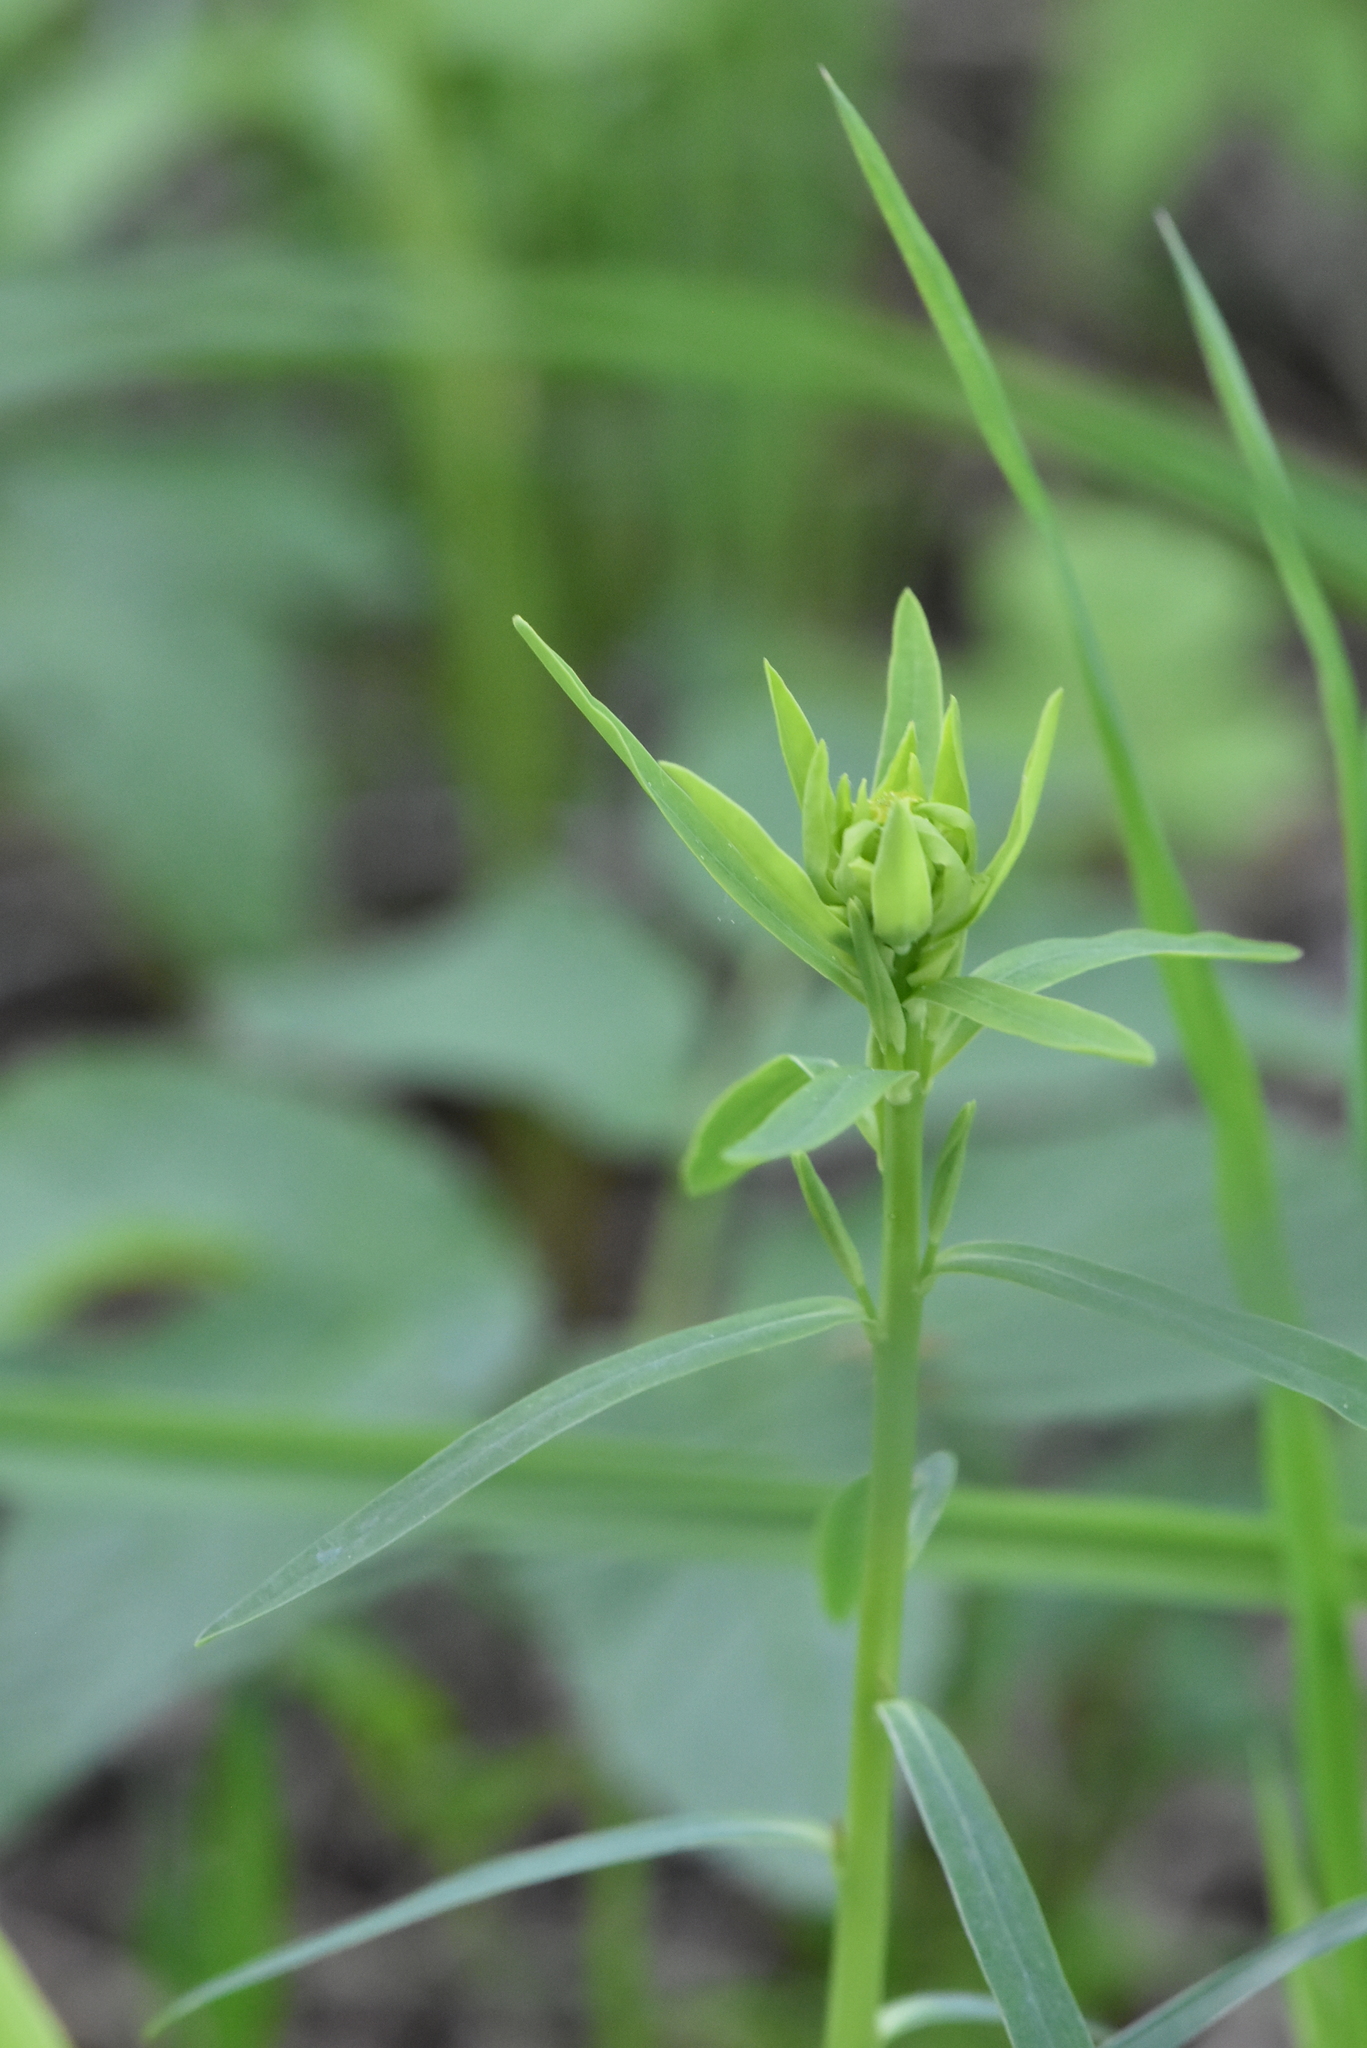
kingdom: Plantae
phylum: Tracheophyta
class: Magnoliopsida
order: Malpighiales
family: Euphorbiaceae
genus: Euphorbia
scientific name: Euphorbia virgata
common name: Leafy spurge
